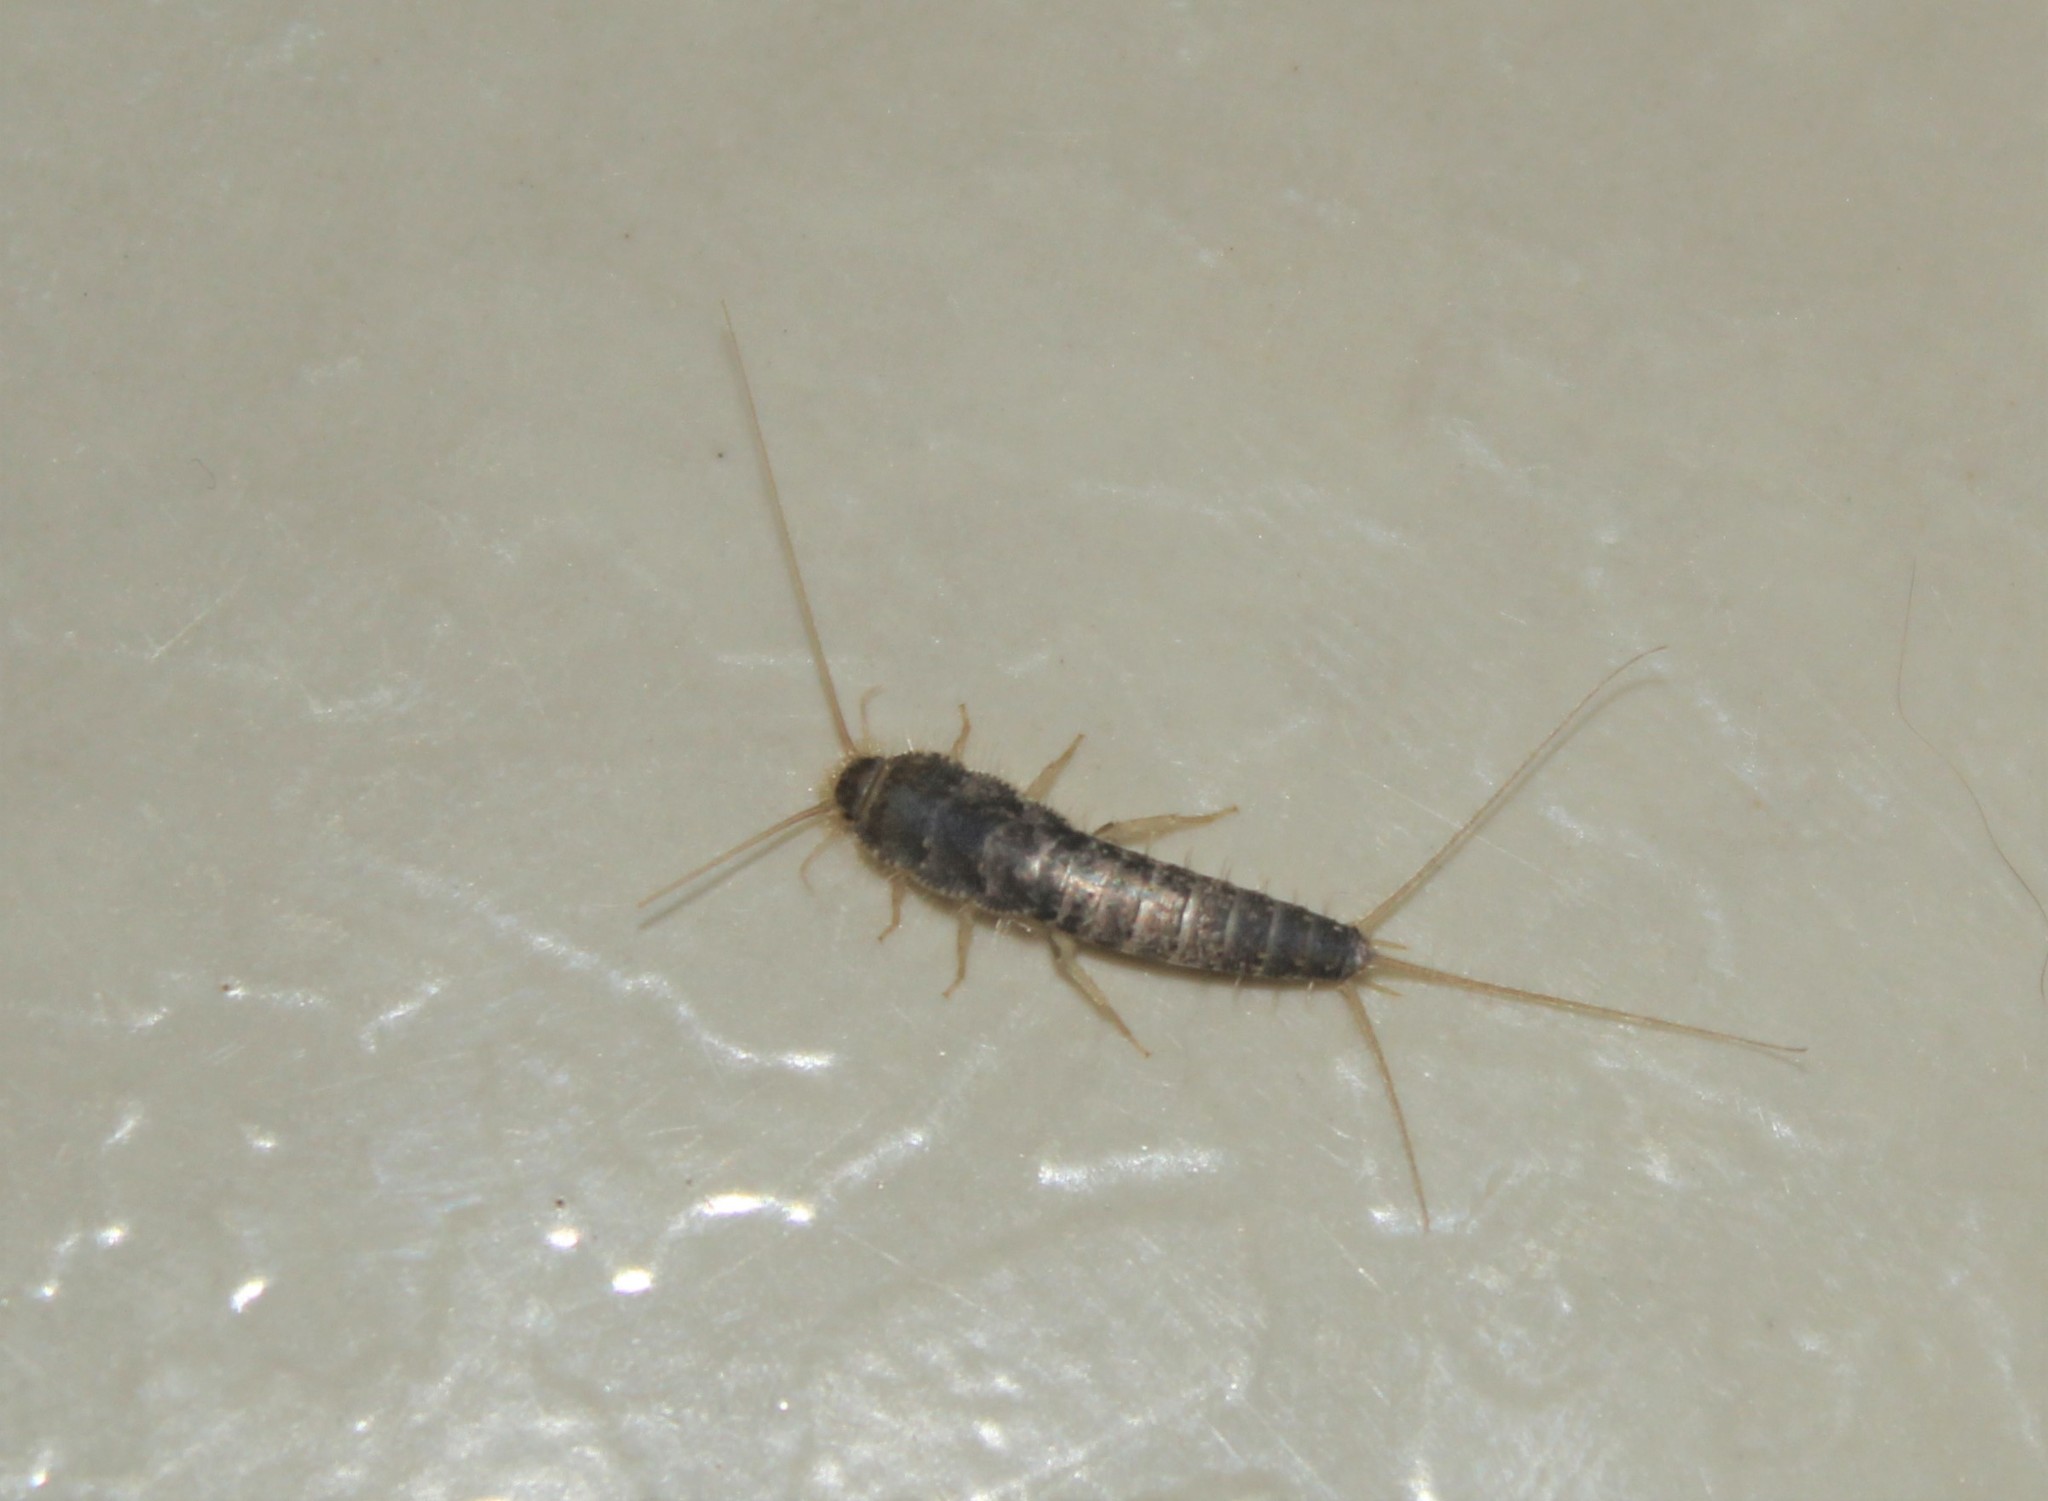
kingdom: Animalia
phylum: Arthropoda
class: Insecta
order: Zygentoma
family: Lepismatidae
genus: Ctenolepisma
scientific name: Ctenolepisma longicaudatum
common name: Silverfish
